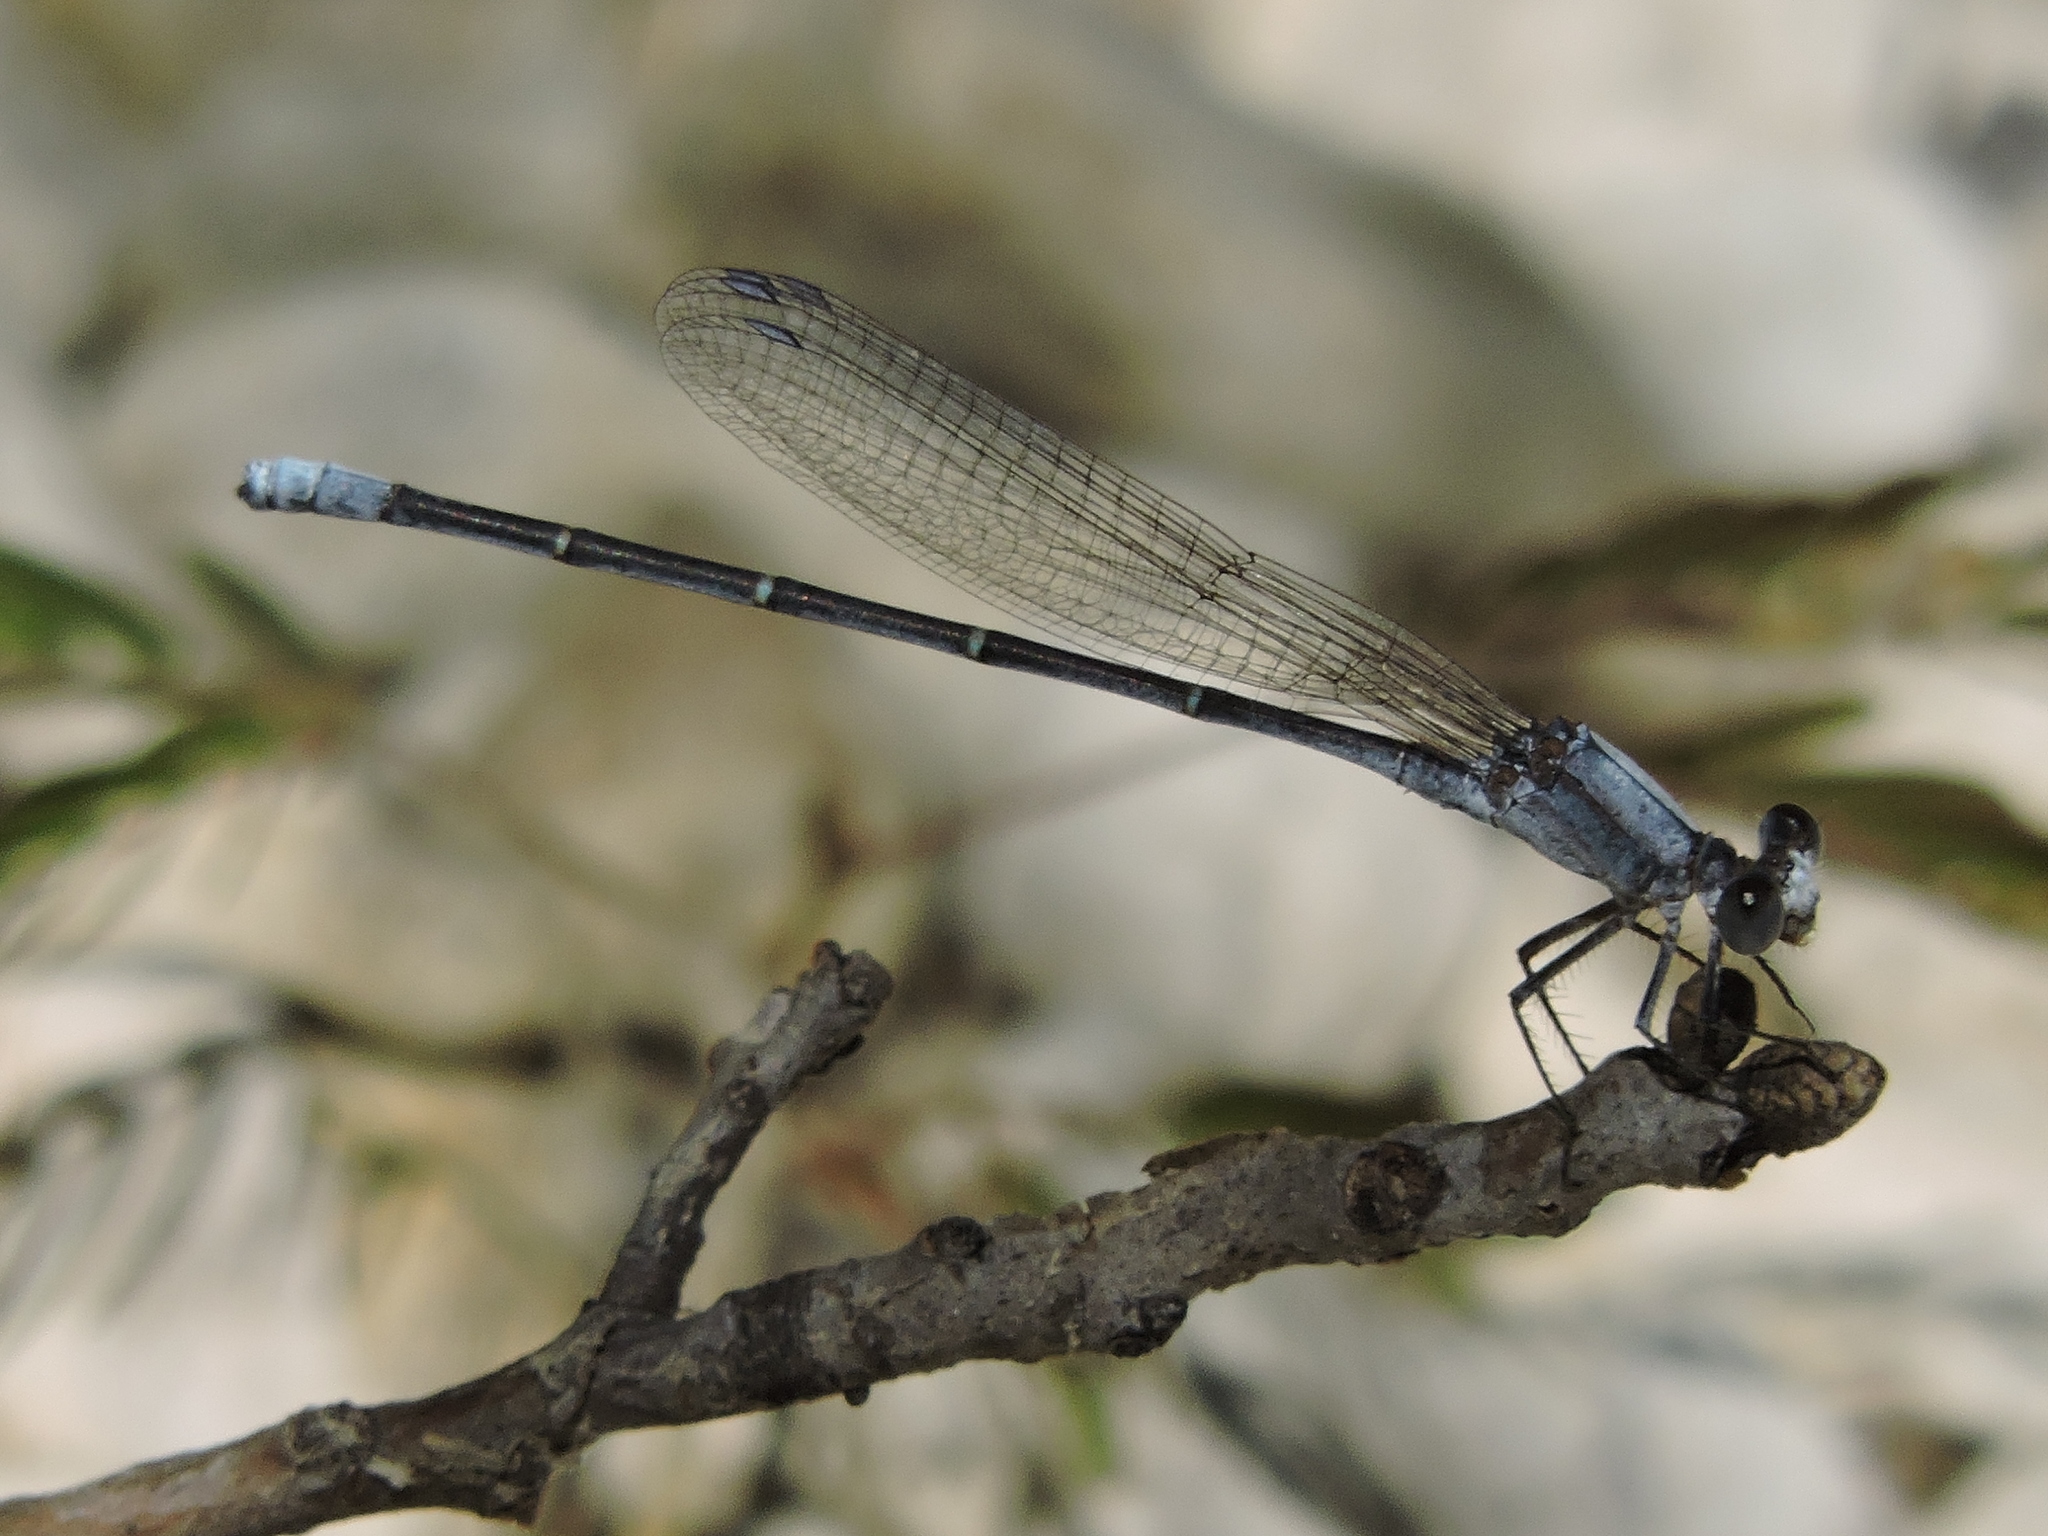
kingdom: Animalia
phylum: Arthropoda
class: Insecta
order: Odonata
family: Coenagrionidae
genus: Argia
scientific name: Argia moesta
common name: Powdered dancer
